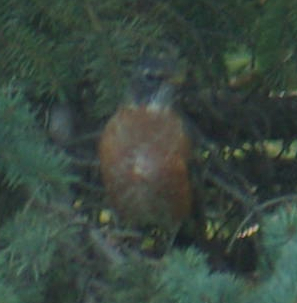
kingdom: Animalia
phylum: Chordata
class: Aves
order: Passeriformes
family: Turdidae
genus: Turdus
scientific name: Turdus migratorius
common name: American robin
